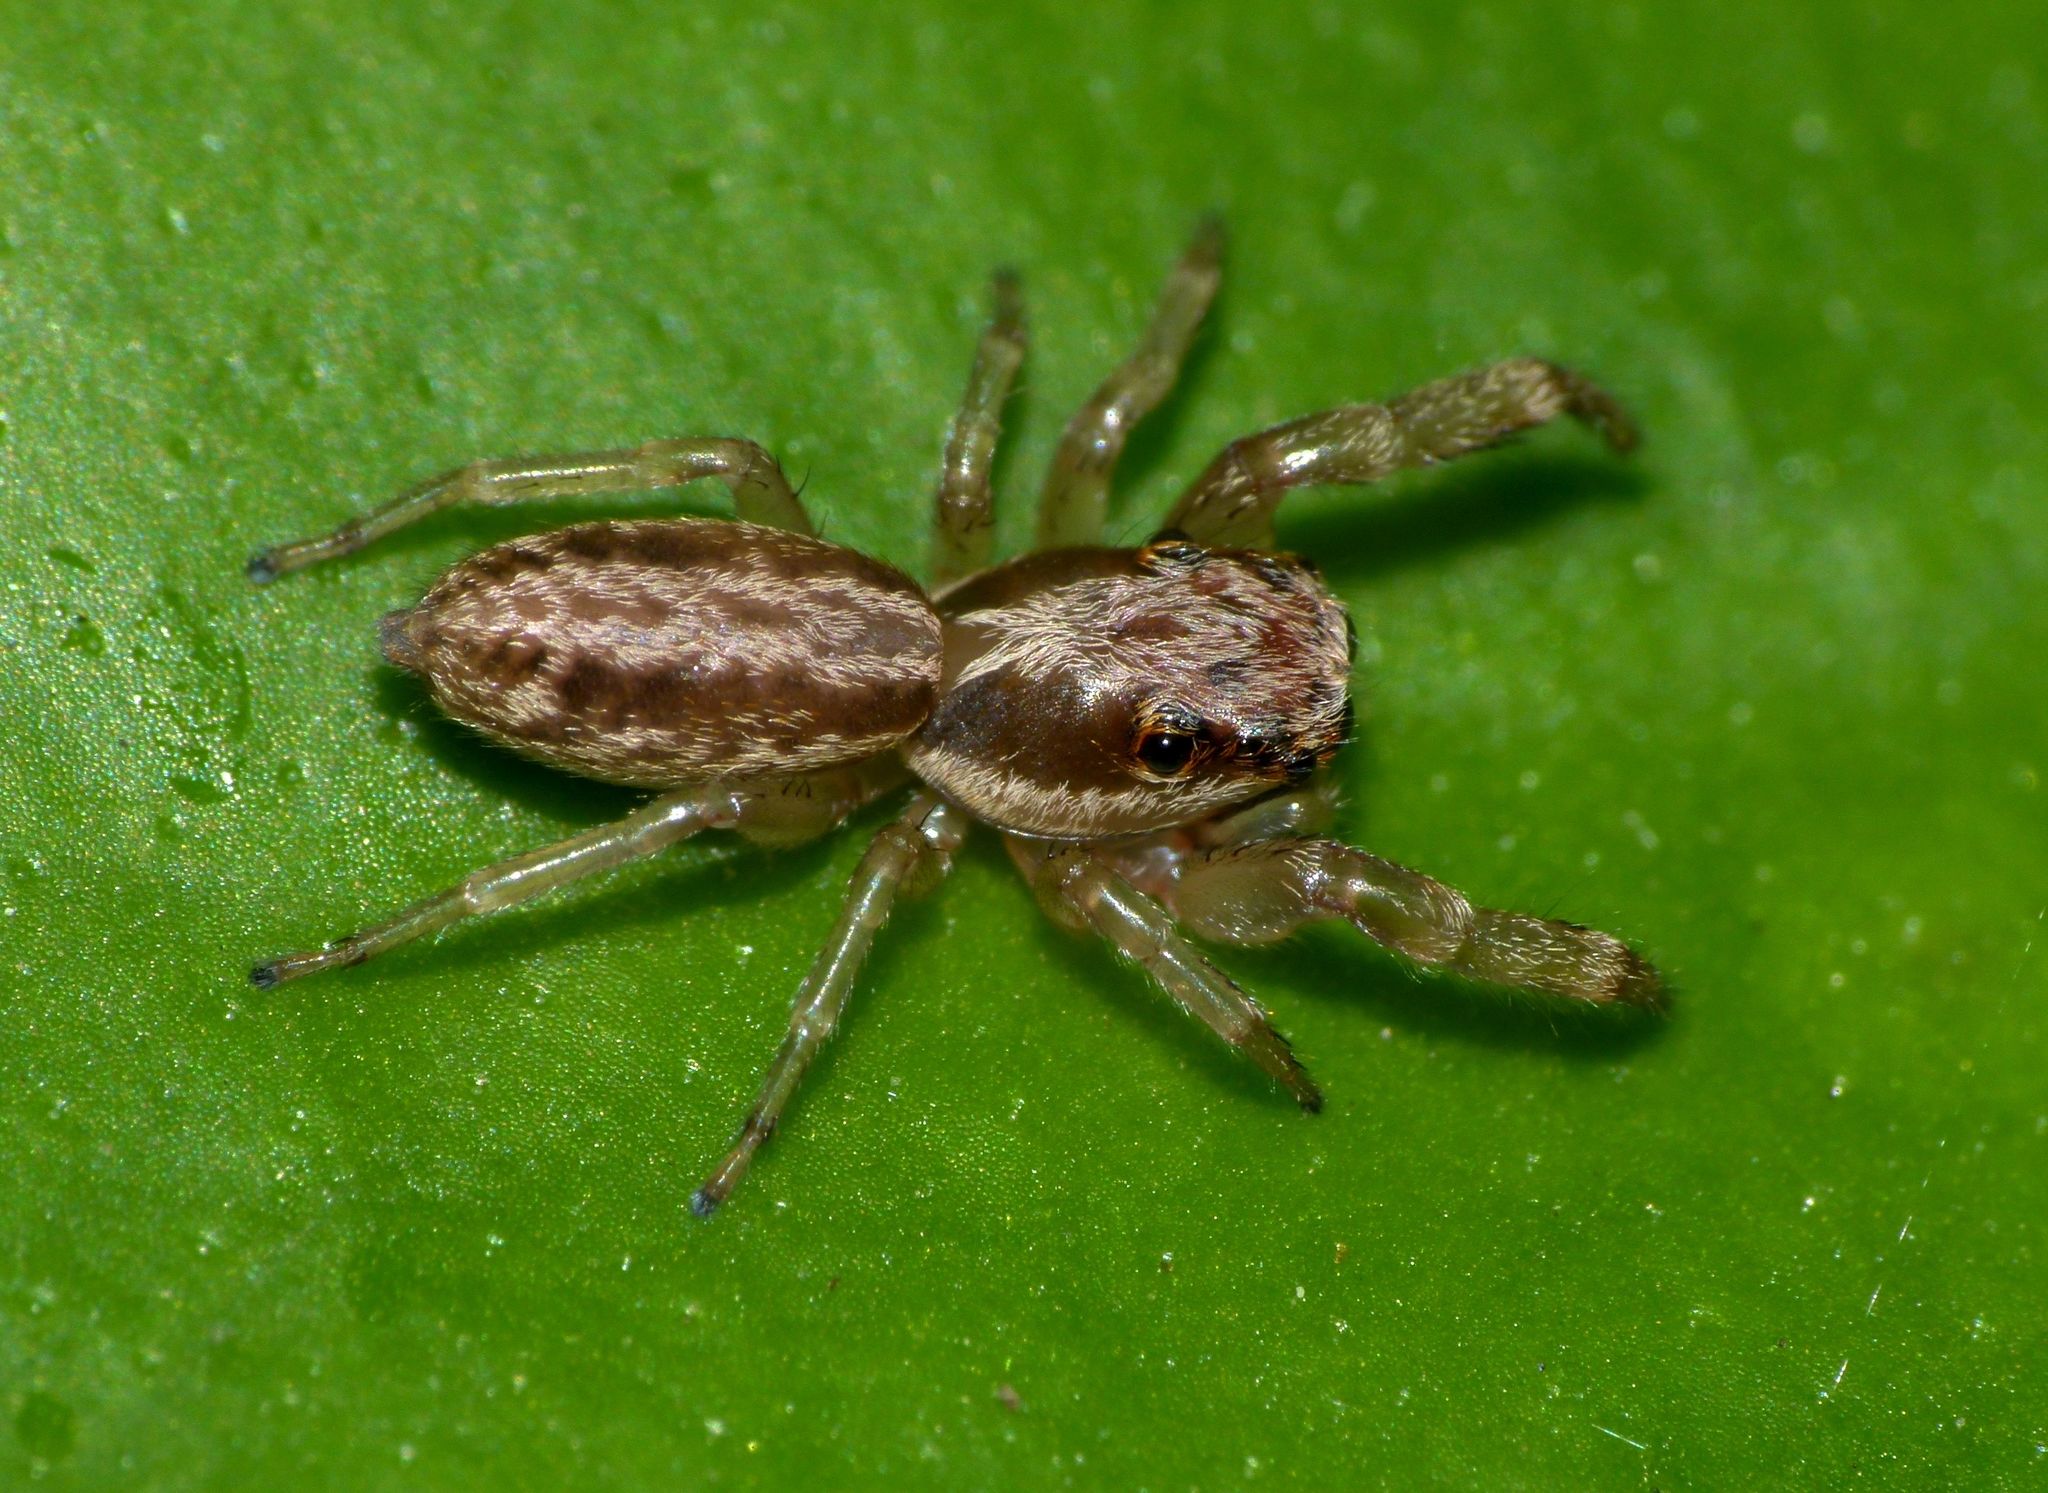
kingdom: Animalia
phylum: Arthropoda
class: Arachnida
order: Araneae
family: Salticidae
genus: Trite
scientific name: Trite mustilina
